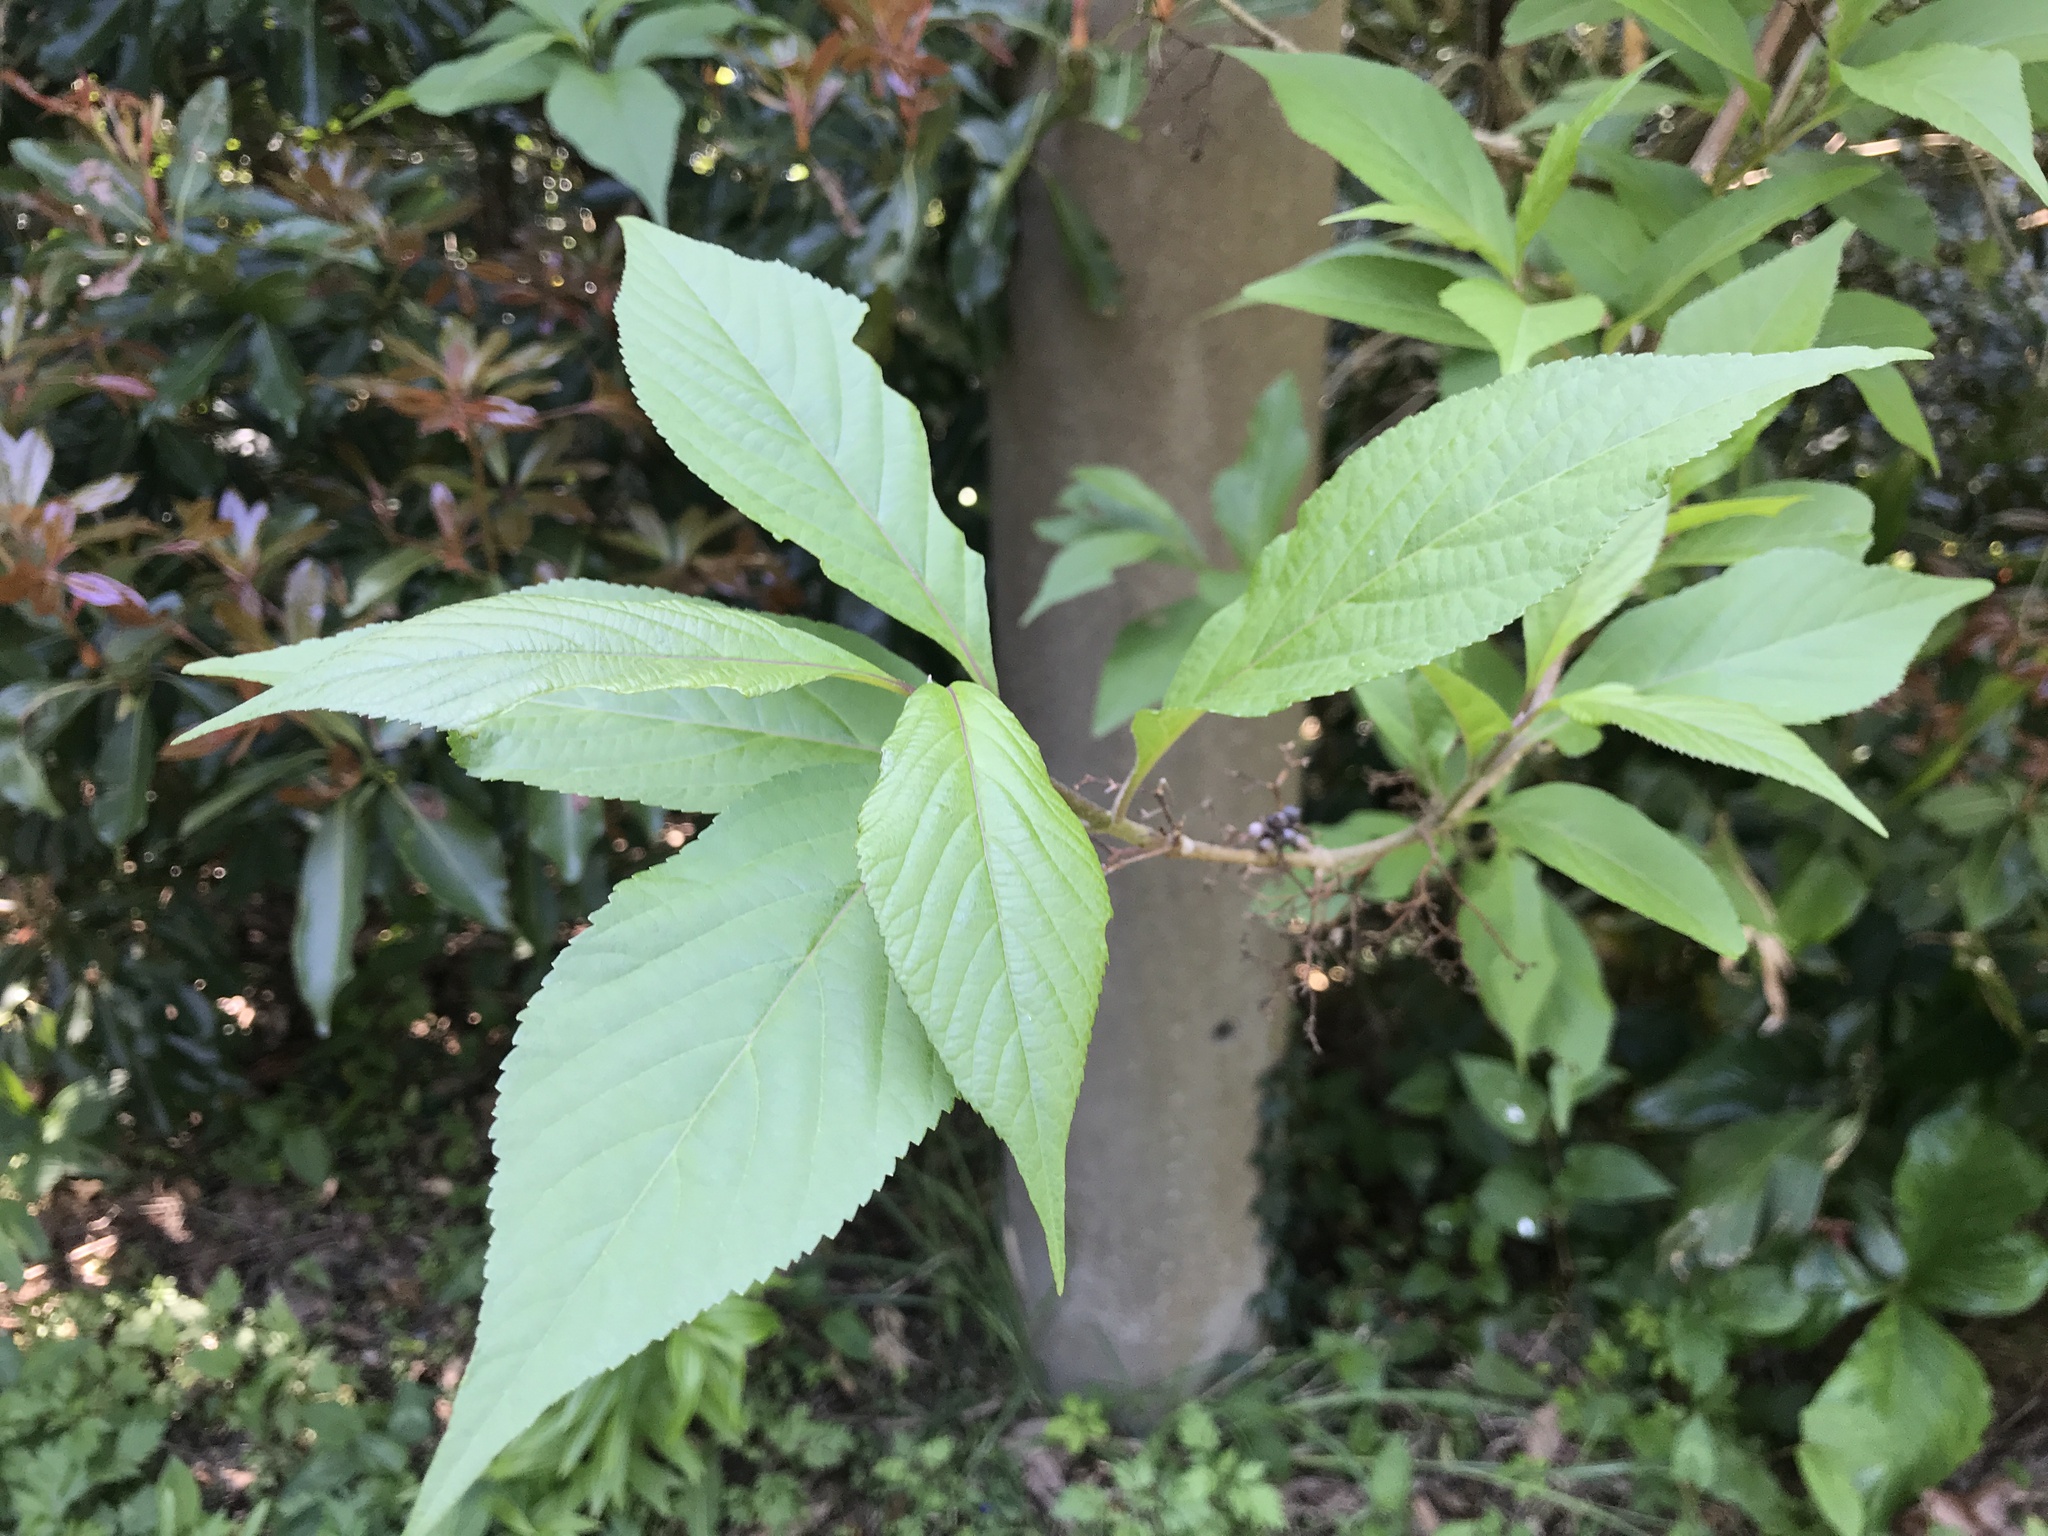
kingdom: Plantae
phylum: Tracheophyta
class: Magnoliopsida
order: Lamiales
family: Lamiaceae
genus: Callicarpa
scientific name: Callicarpa japonica
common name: Japanese beauty-berry
